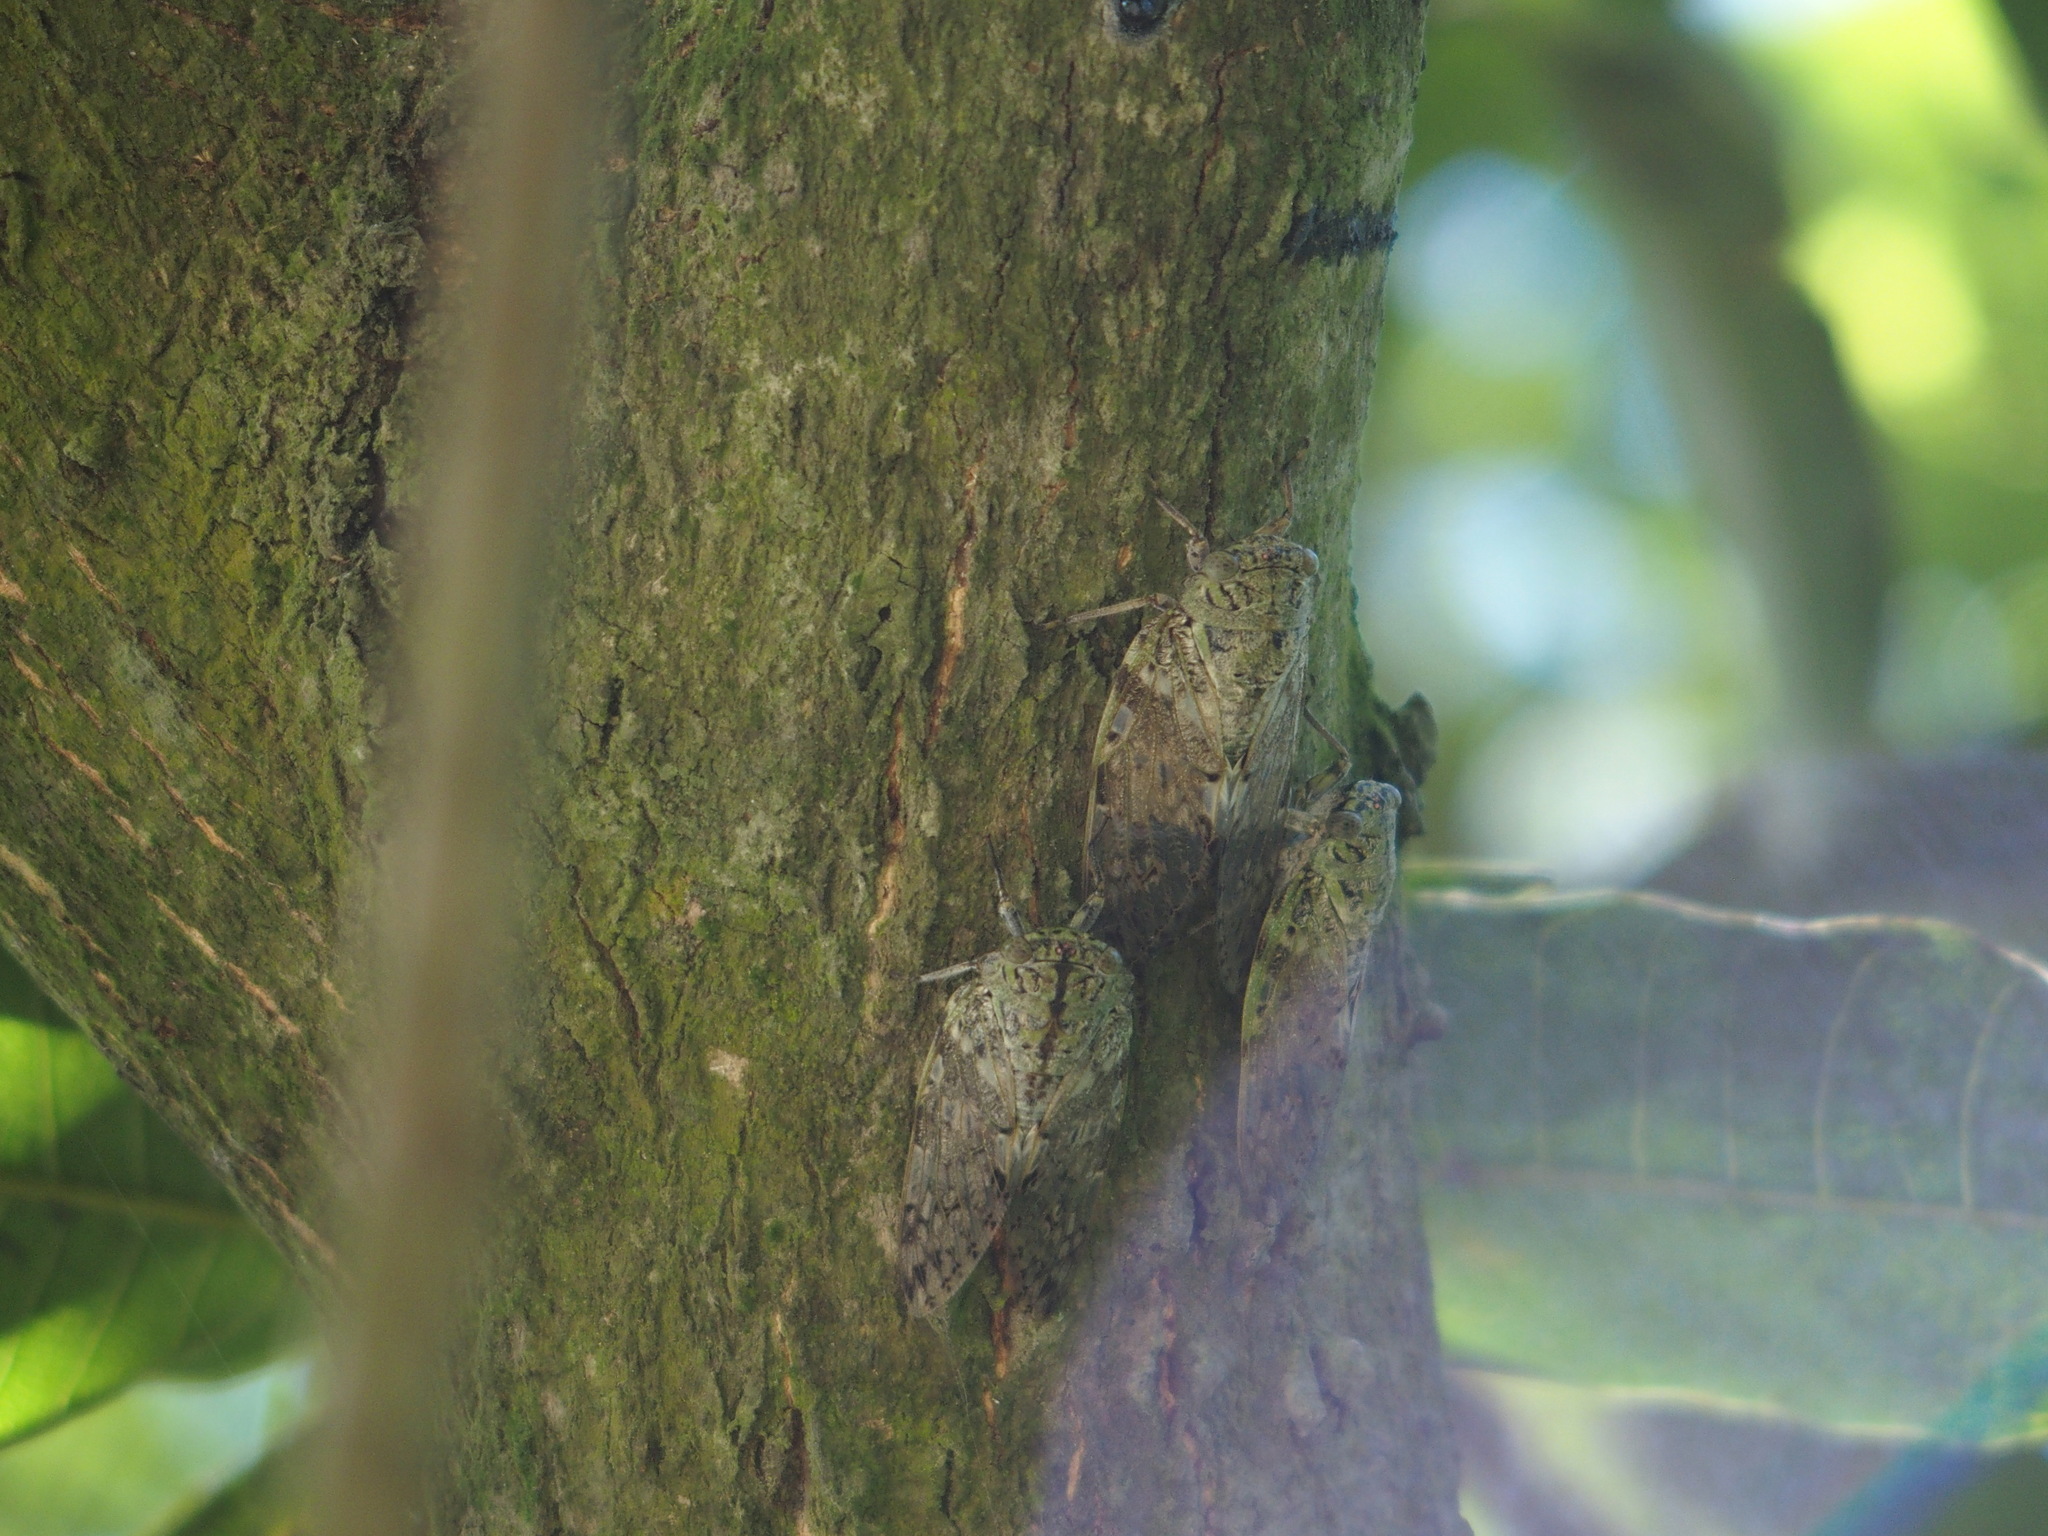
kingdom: Animalia
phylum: Arthropoda
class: Insecta
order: Hemiptera
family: Cicadidae
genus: Platypleura
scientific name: Platypleura takasagona
